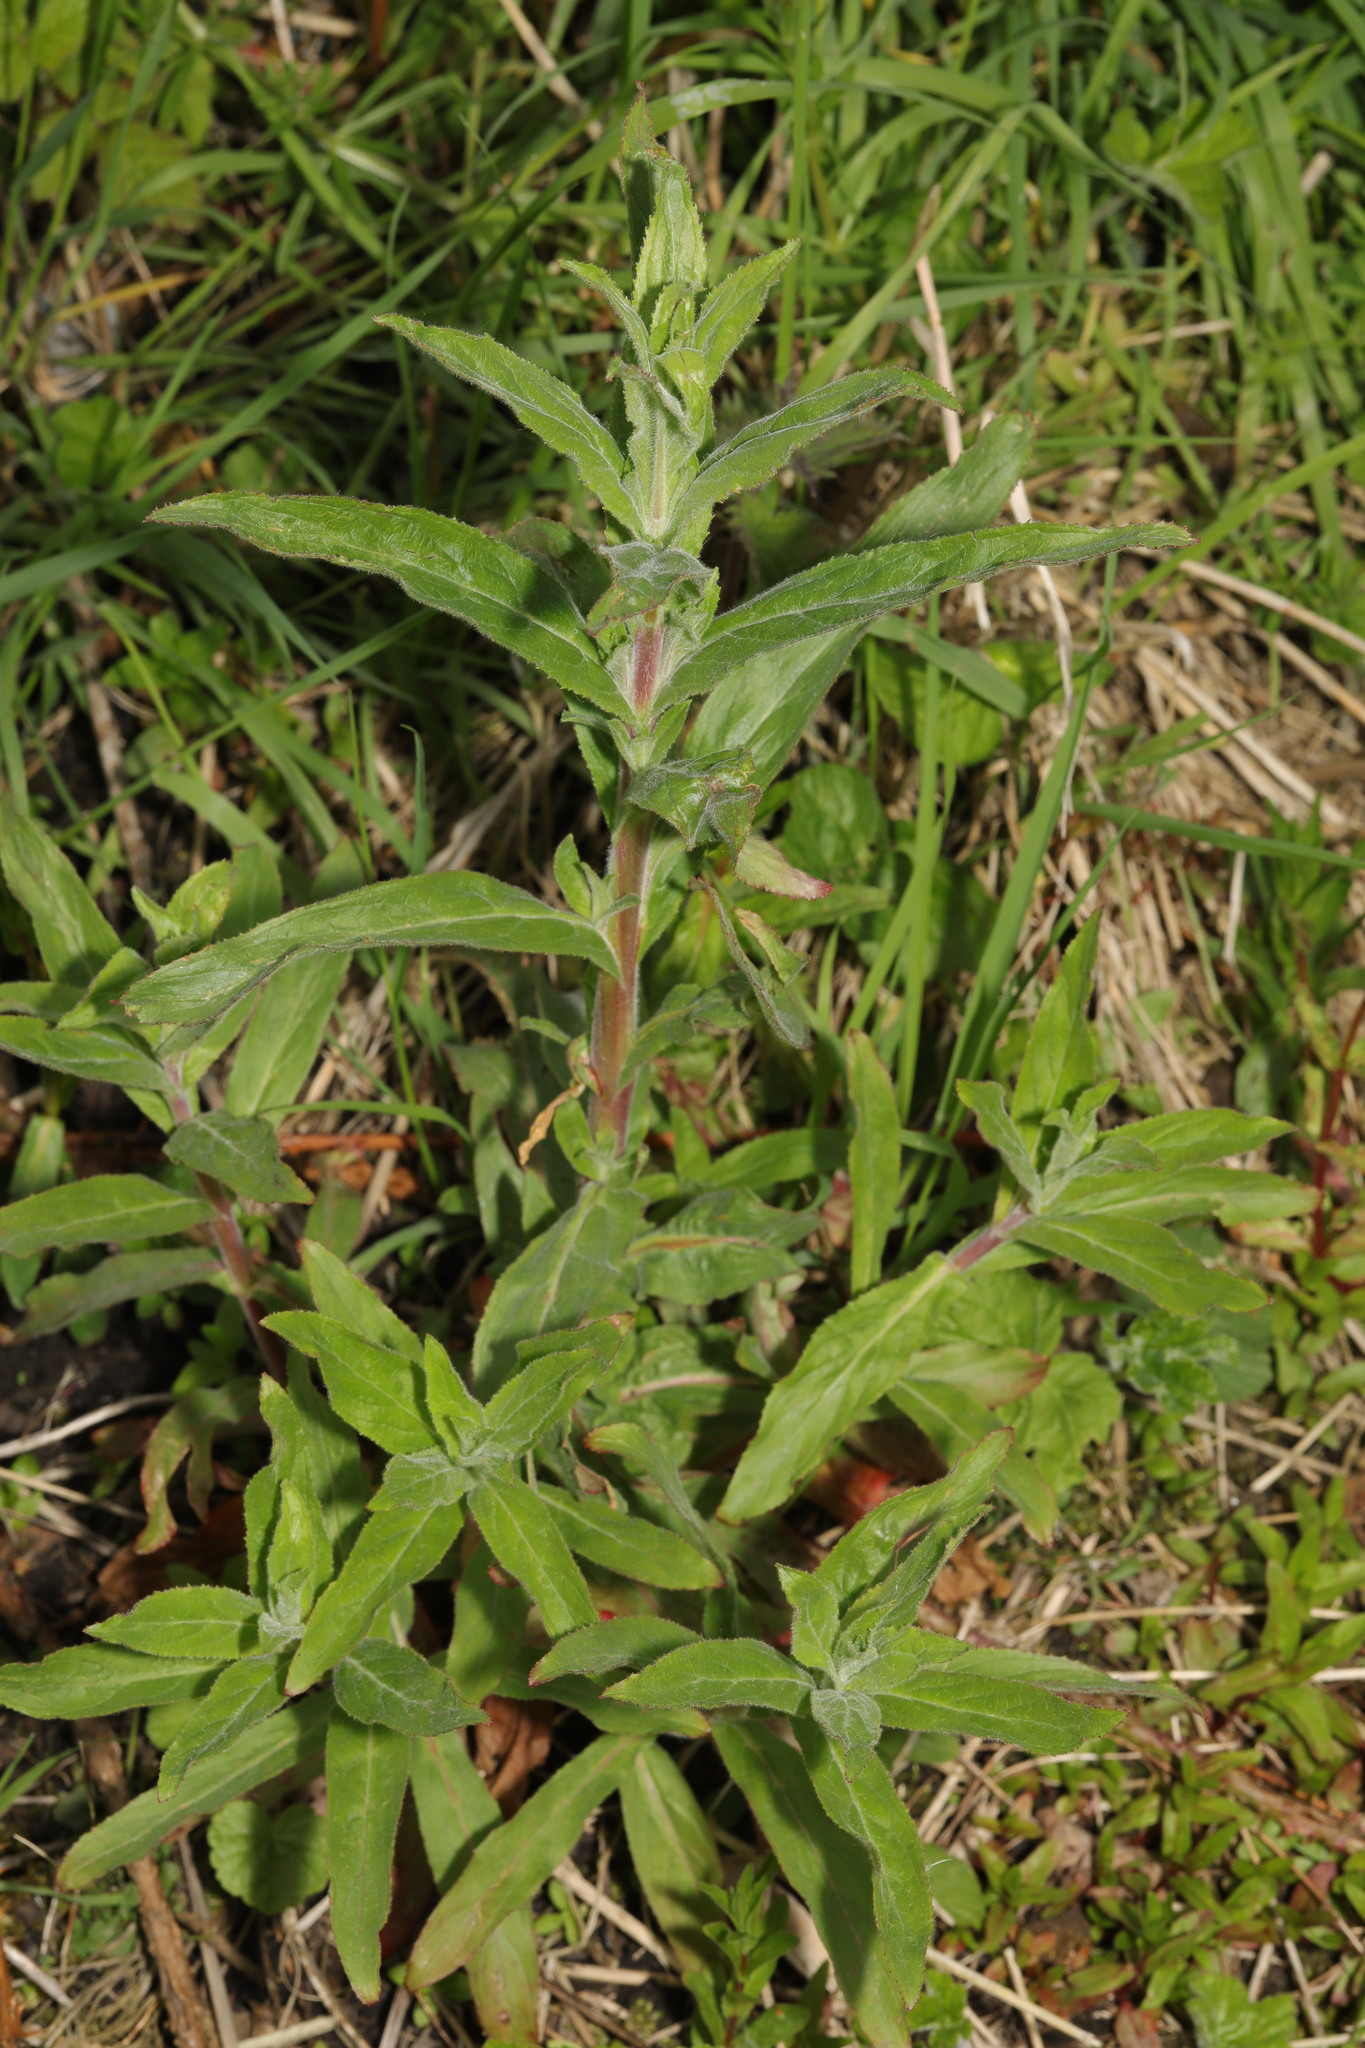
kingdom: Plantae
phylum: Tracheophyta
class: Magnoliopsida
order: Myrtales
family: Onagraceae
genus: Epilobium
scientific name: Epilobium hirsutum
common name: Great willowherb
